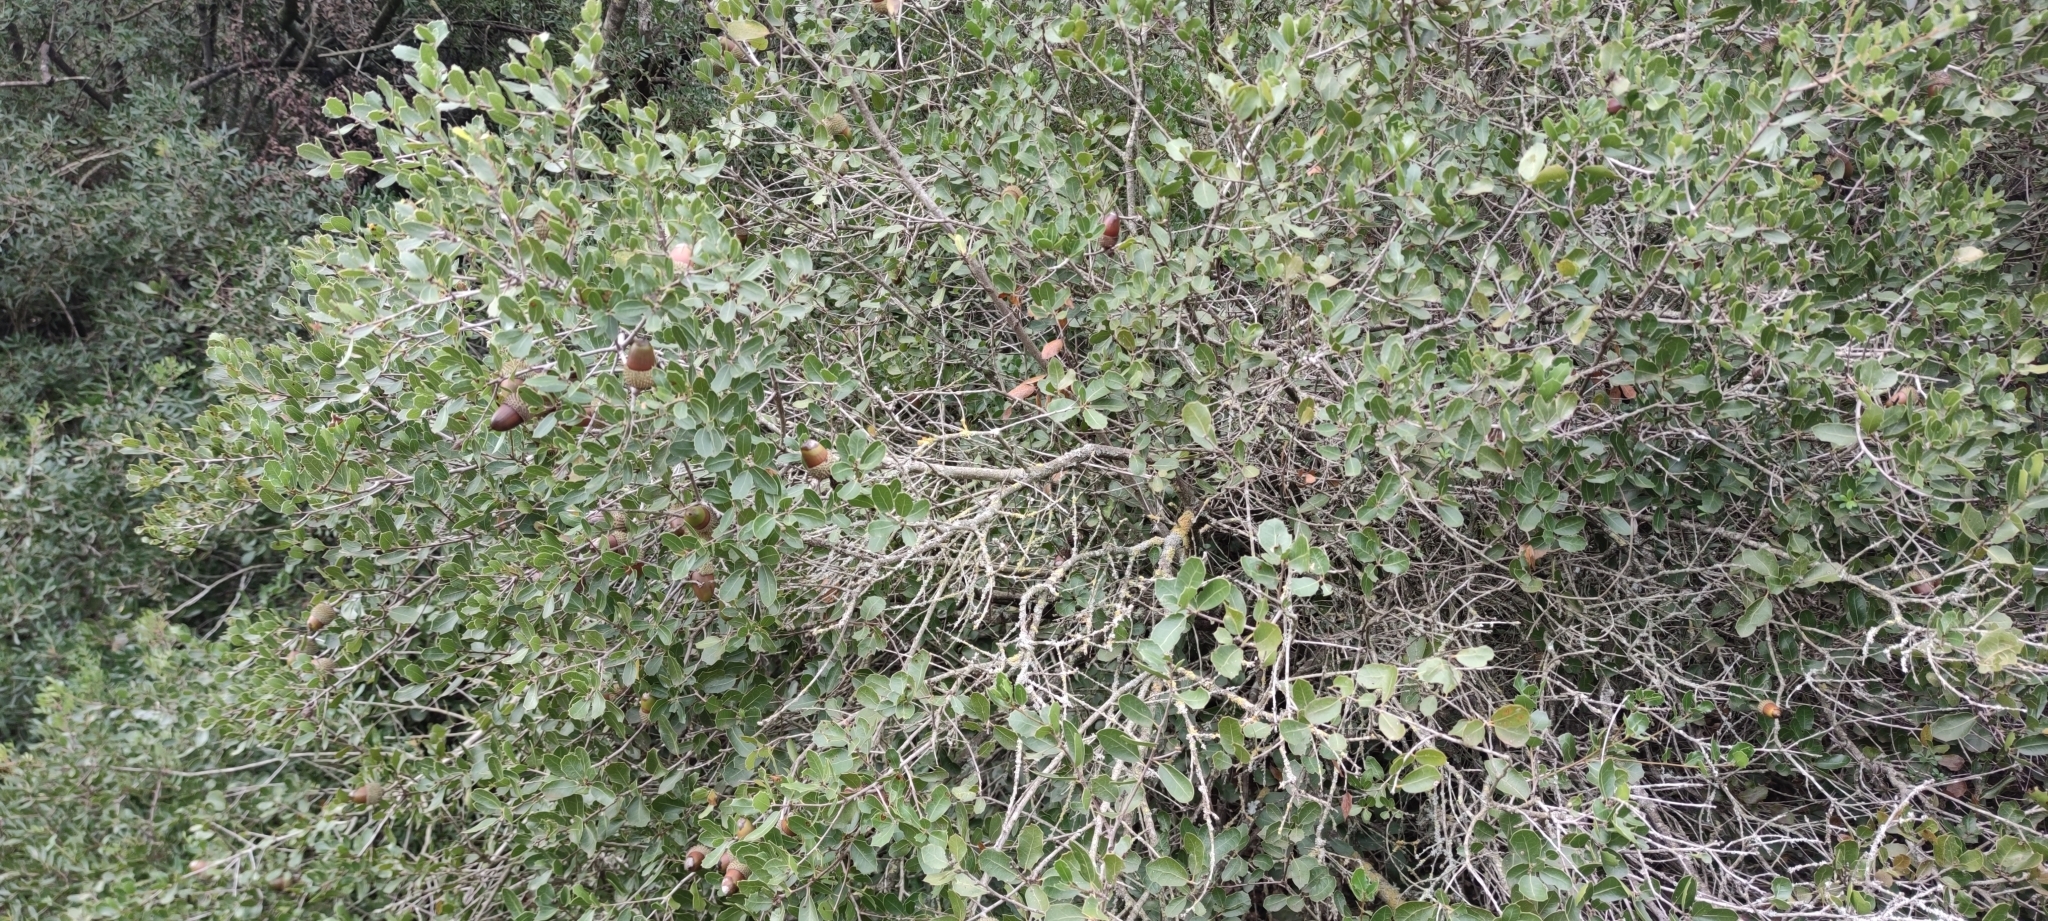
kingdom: Plantae
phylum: Tracheophyta
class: Magnoliopsida
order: Fagales
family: Fagaceae
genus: Quercus
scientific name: Quercus coccifera
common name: Kermes oak
